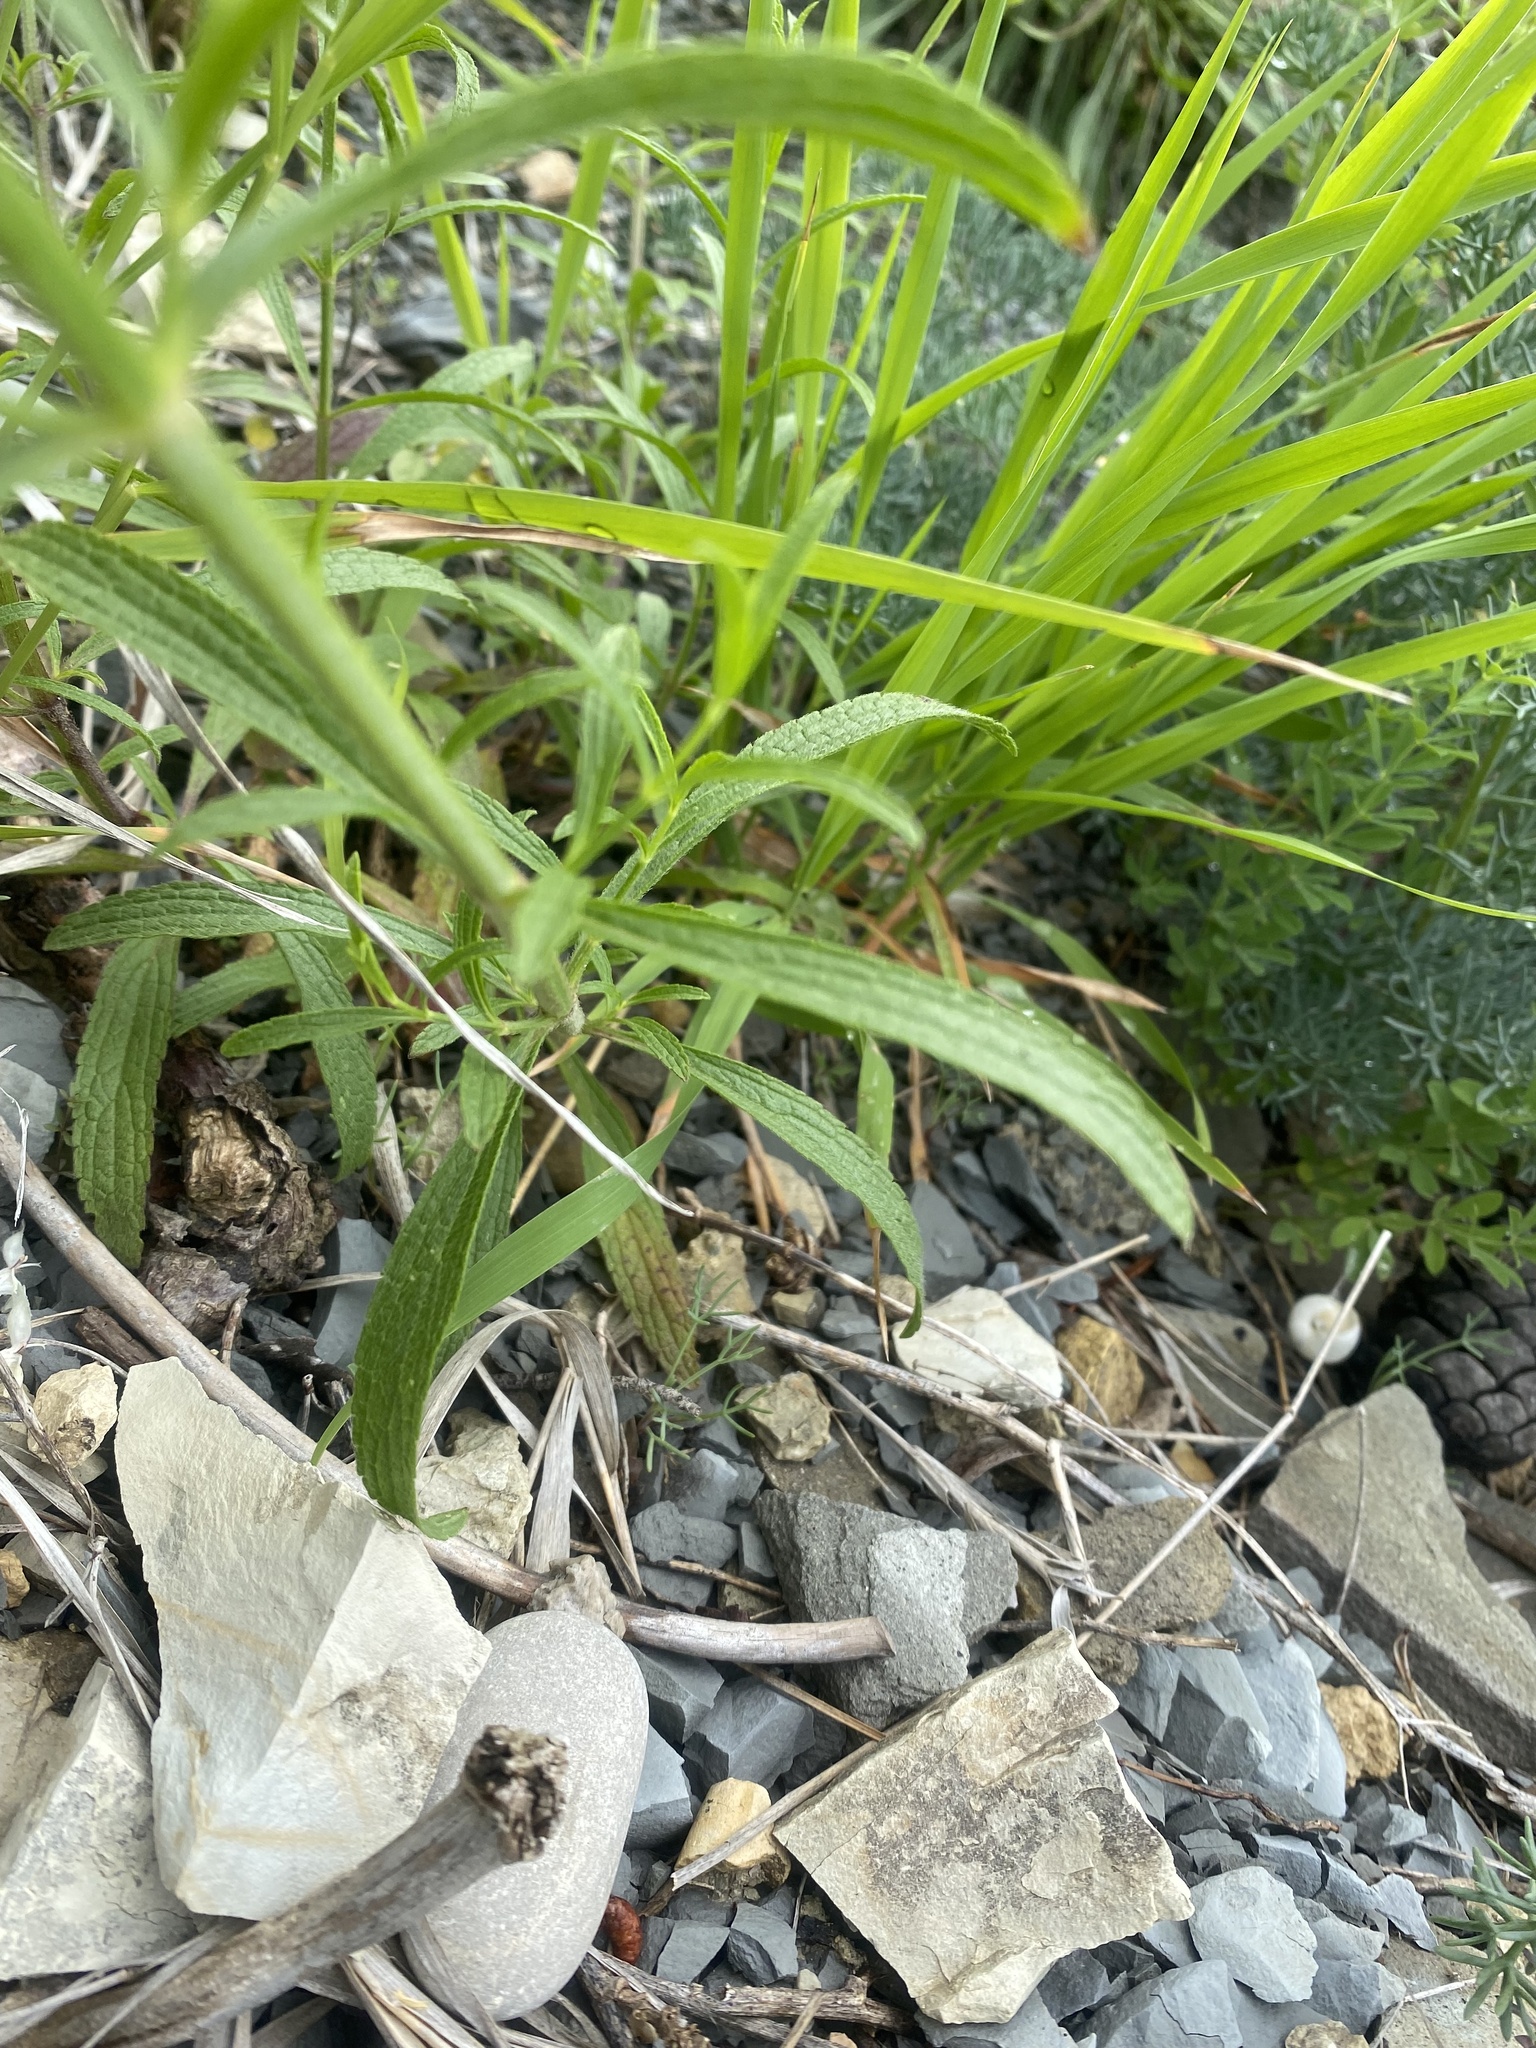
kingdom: Plantae
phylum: Tracheophyta
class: Magnoliopsida
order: Lamiales
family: Lamiaceae
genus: Stachys
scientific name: Stachys atherocalyx
